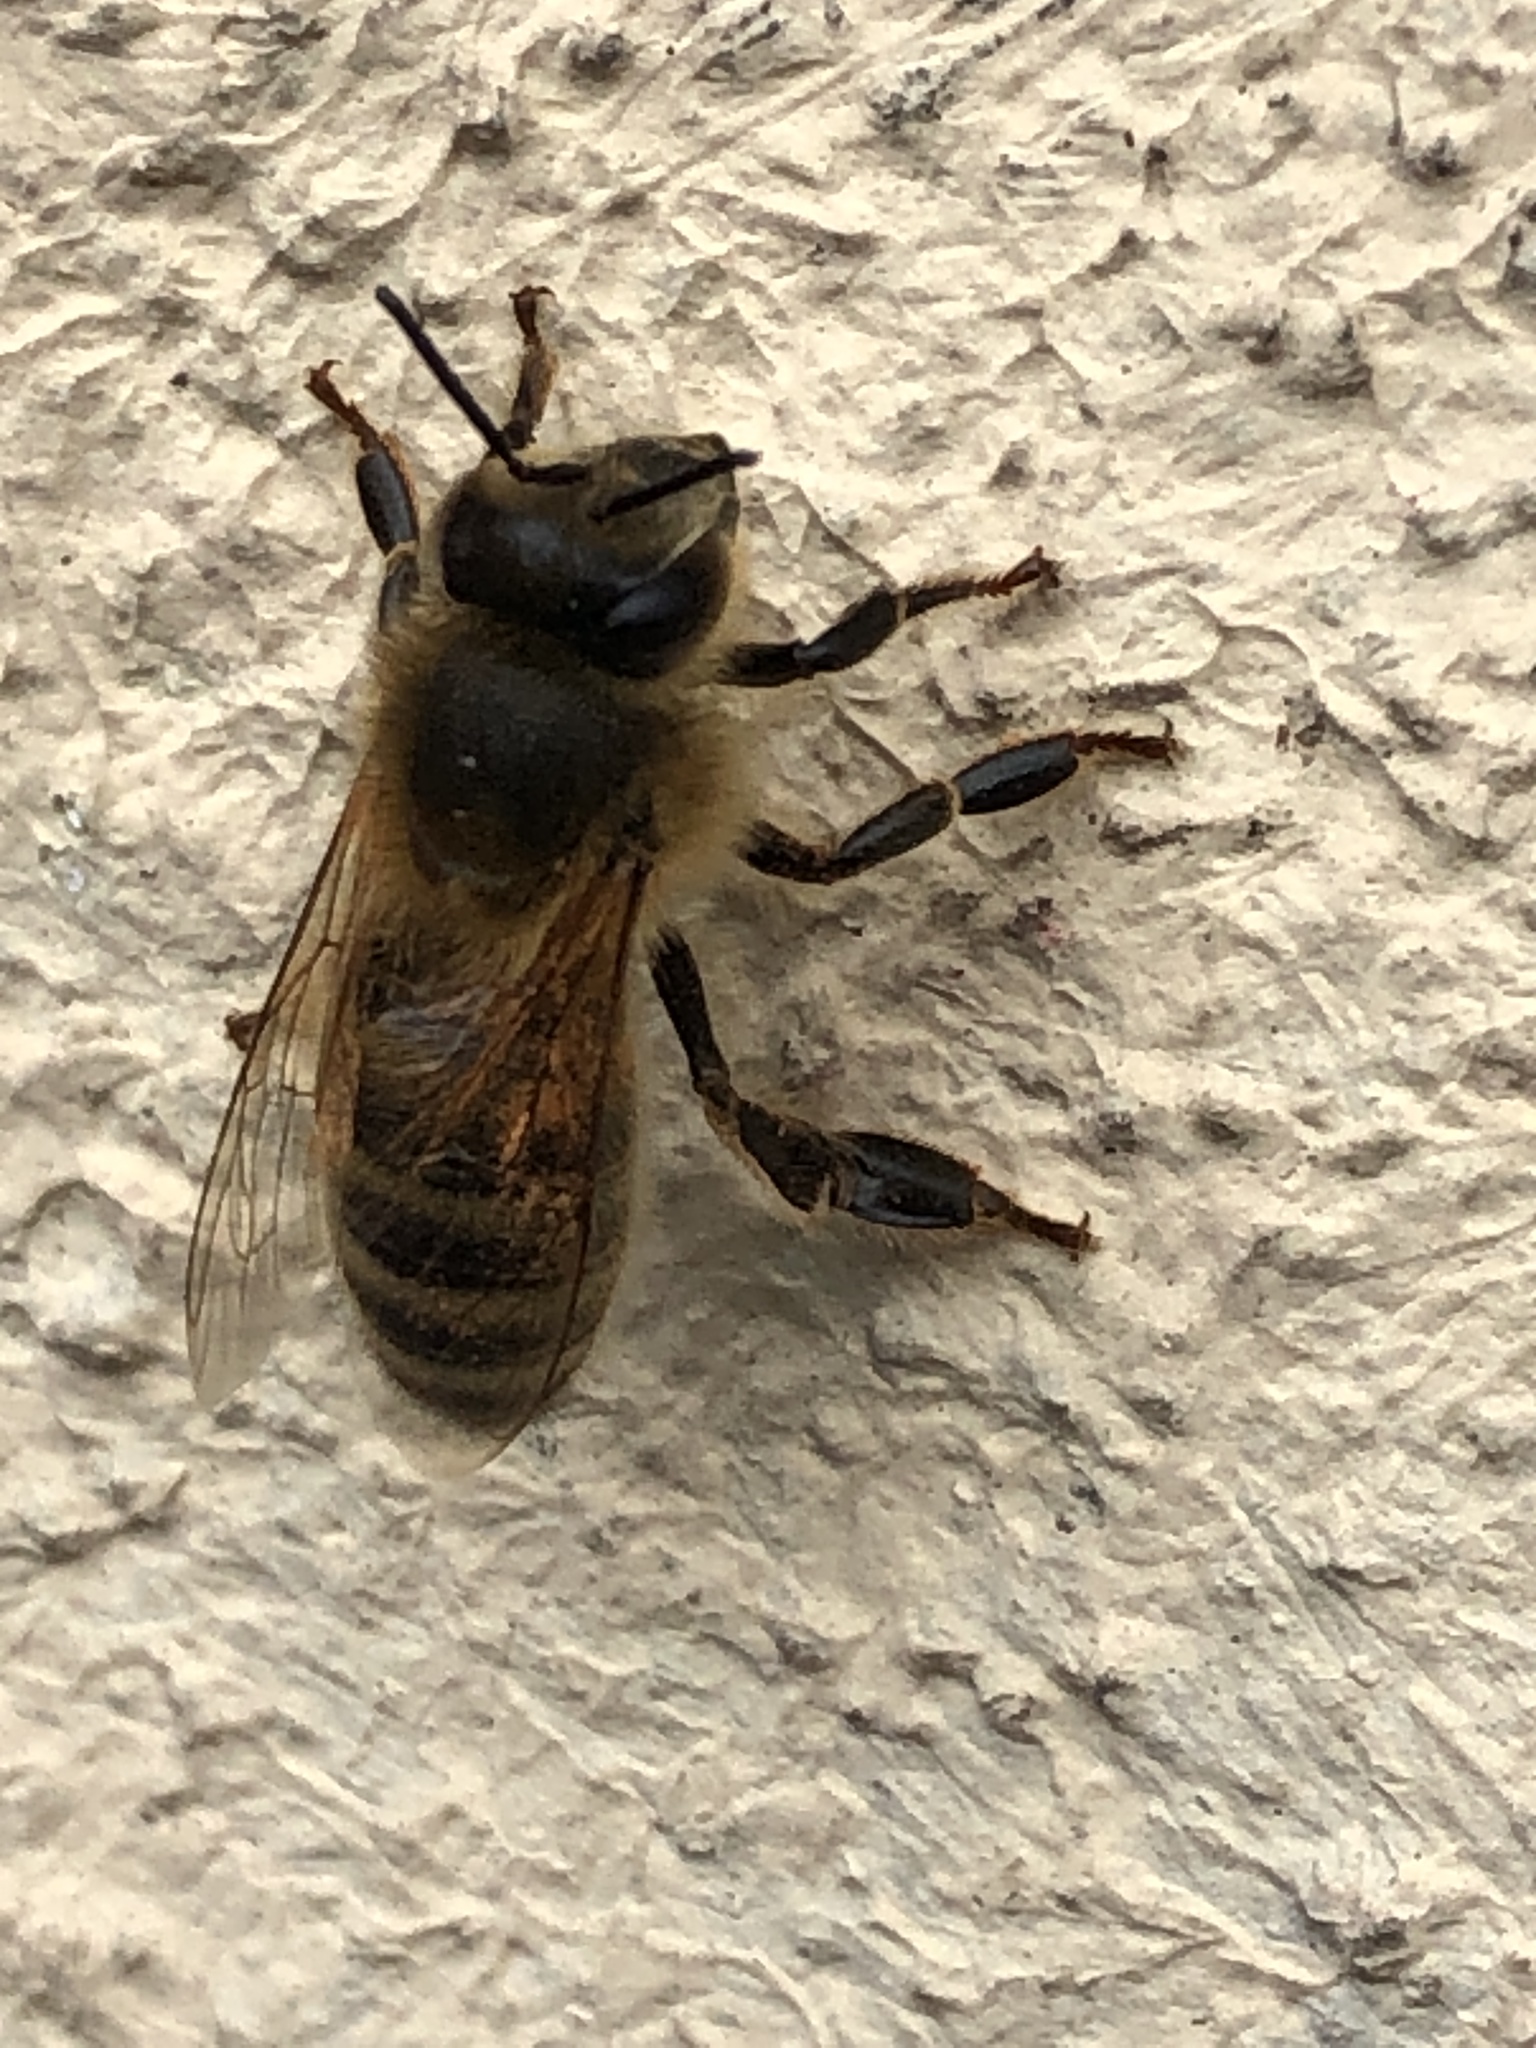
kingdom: Animalia
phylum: Arthropoda
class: Insecta
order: Hymenoptera
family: Apidae
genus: Apis
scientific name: Apis mellifera
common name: Honey bee
